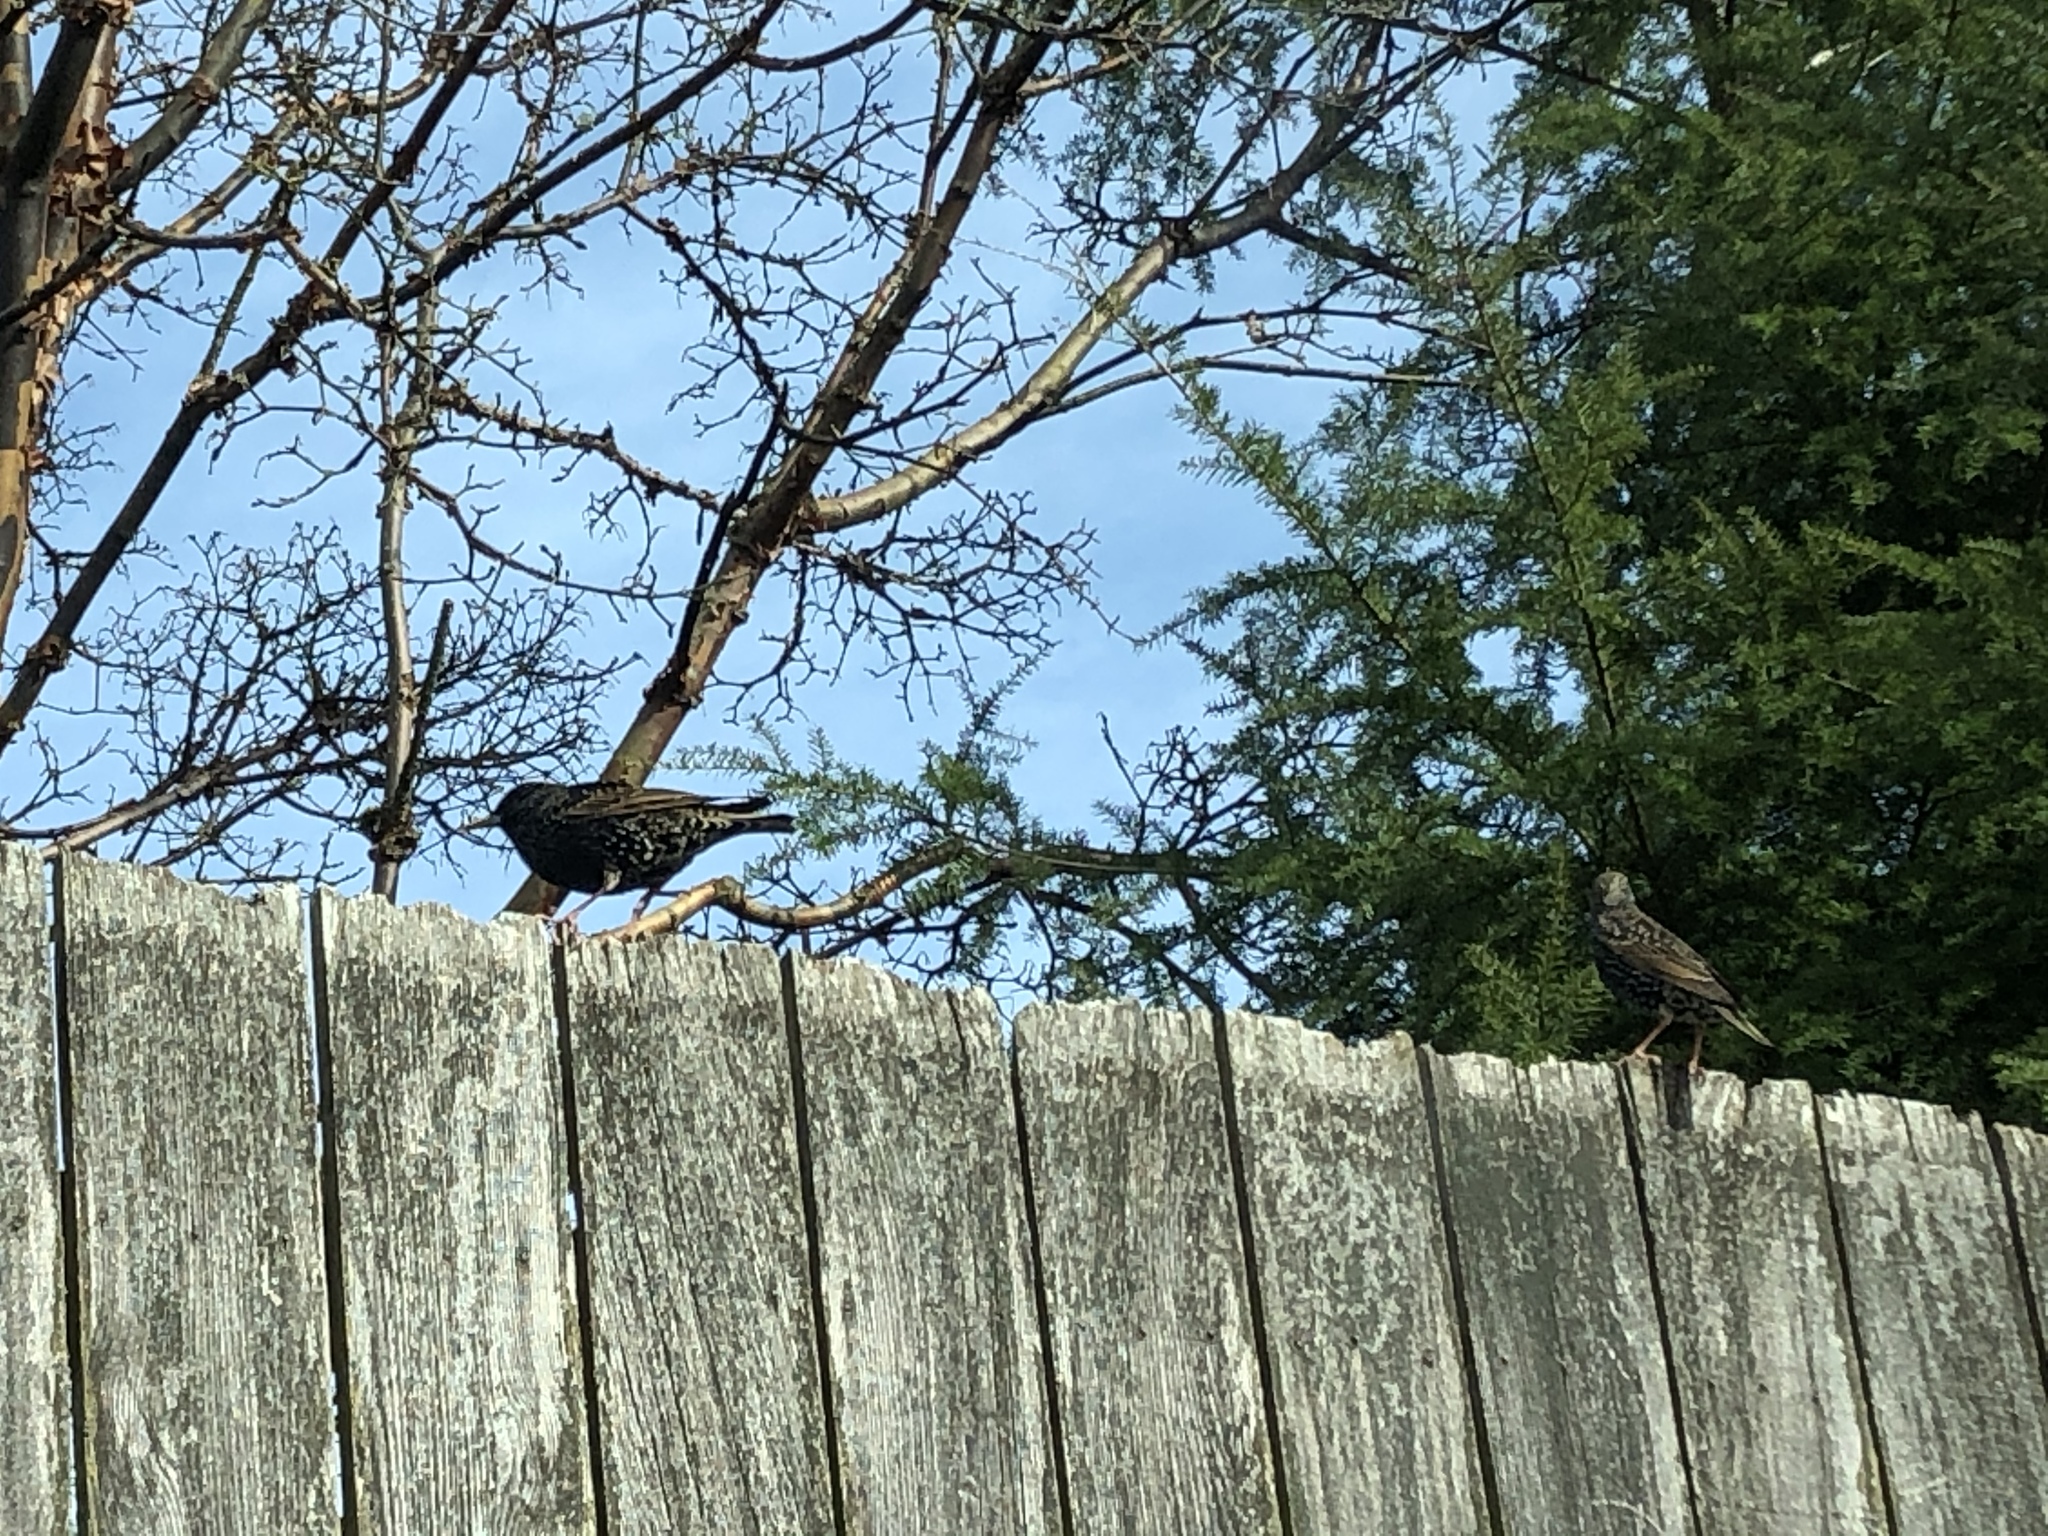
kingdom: Animalia
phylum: Chordata
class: Aves
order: Passeriformes
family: Sturnidae
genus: Sturnus
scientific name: Sturnus vulgaris
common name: Common starling
